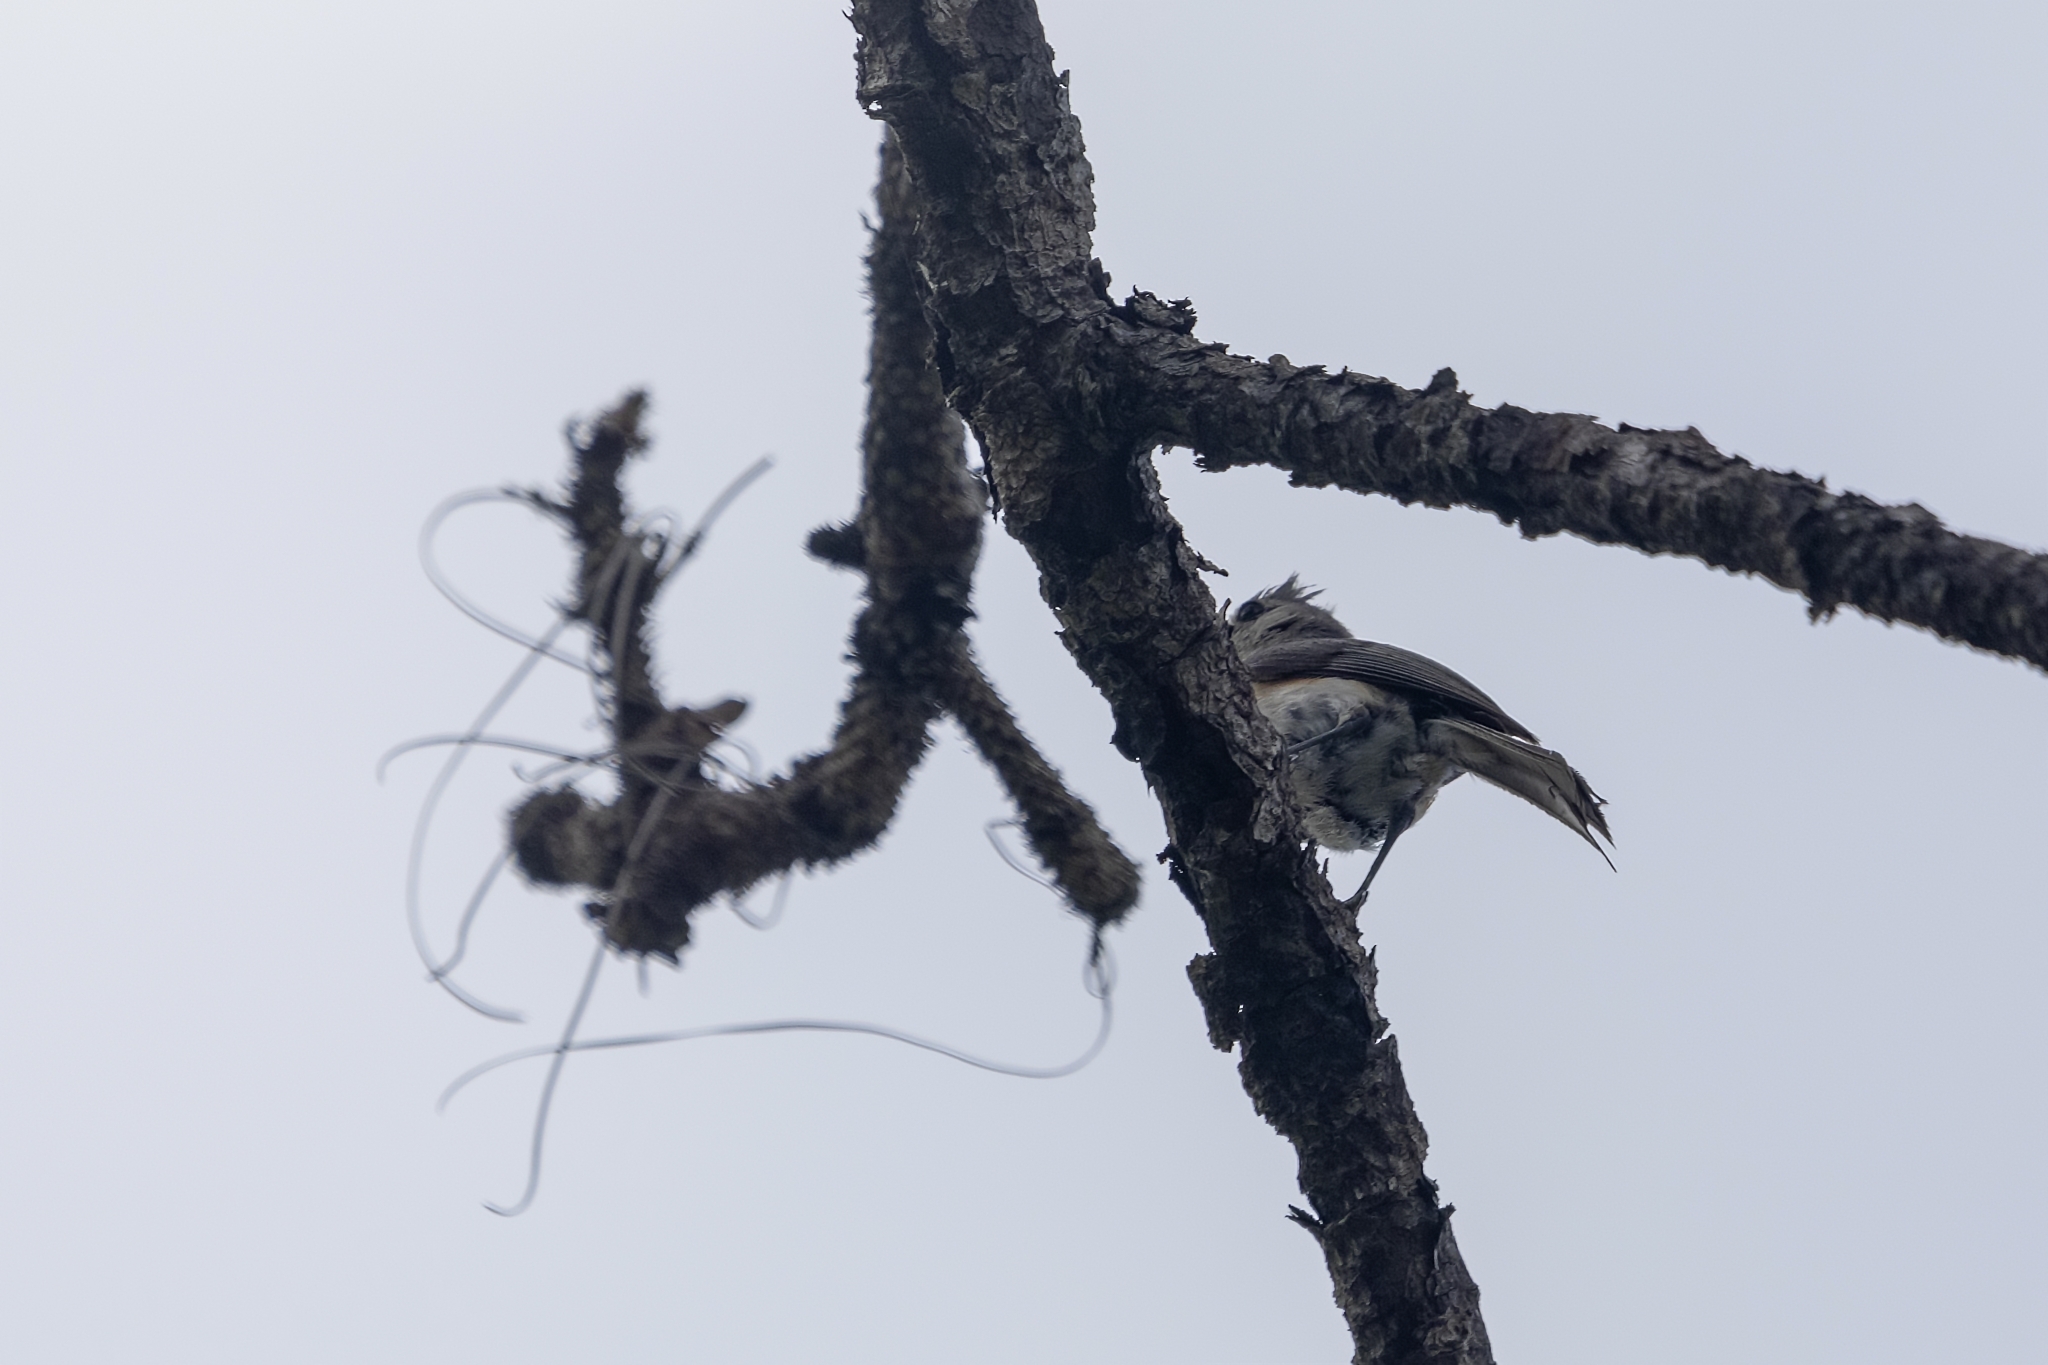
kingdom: Animalia
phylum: Chordata
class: Aves
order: Passeriformes
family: Paridae
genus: Baeolophus
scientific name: Baeolophus bicolor
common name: Tufted titmouse
